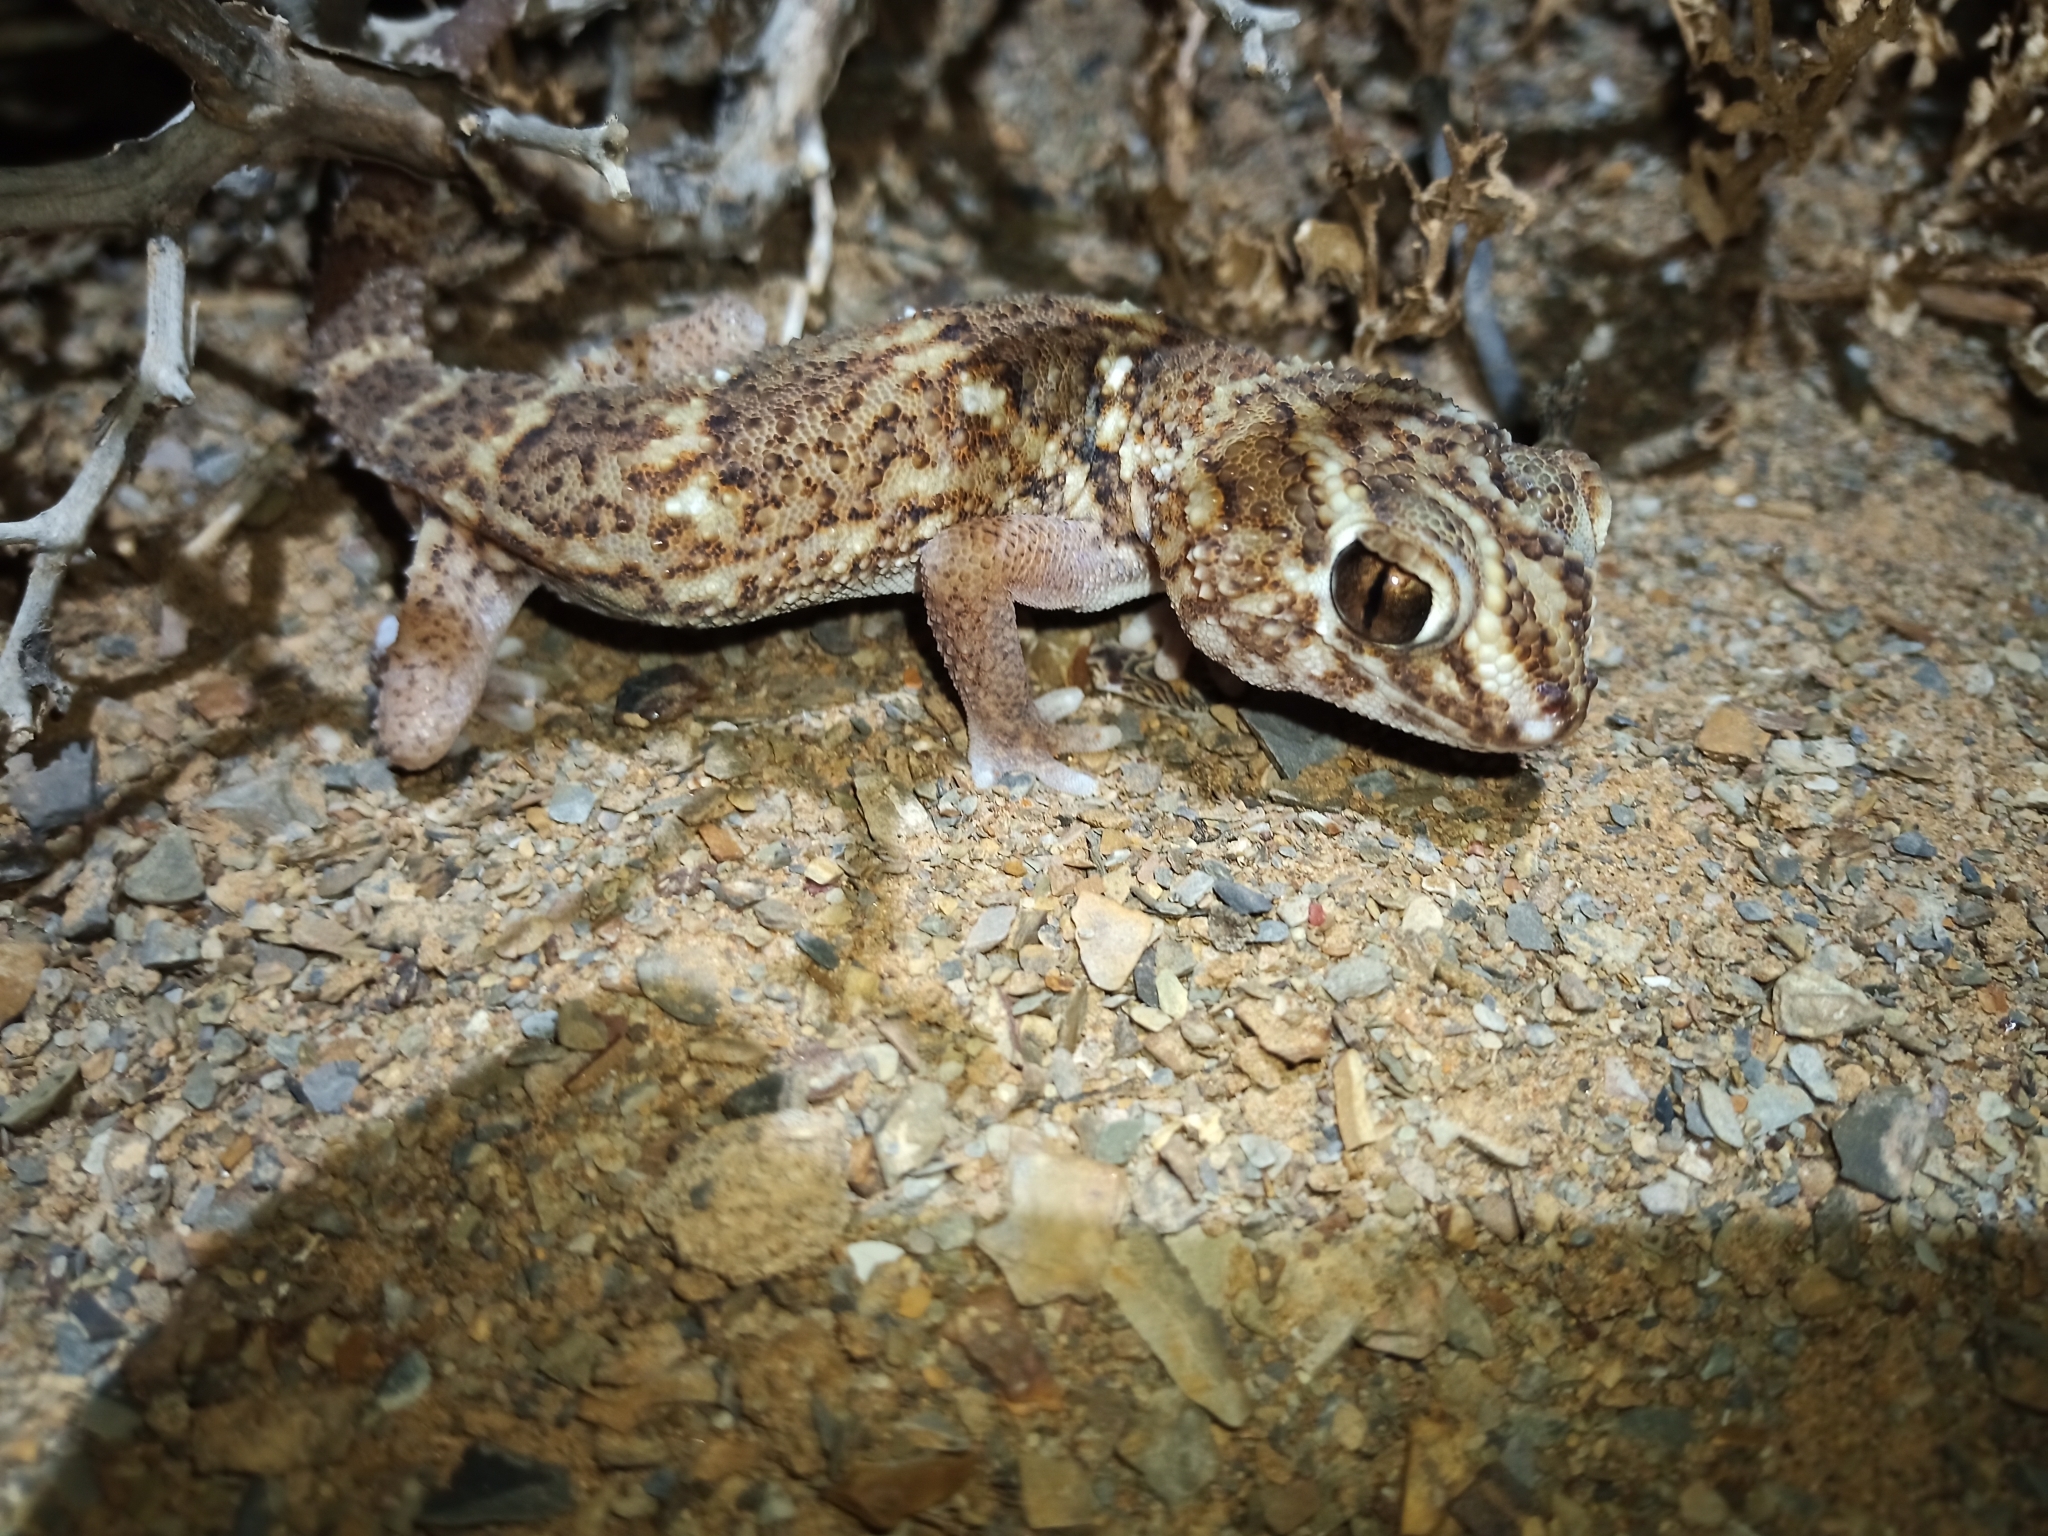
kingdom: Animalia
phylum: Chordata
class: Squamata
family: Gekkonidae
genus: Chondrodactylus
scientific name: Chondrodactylus angulifer
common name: Common giant ground gecko
